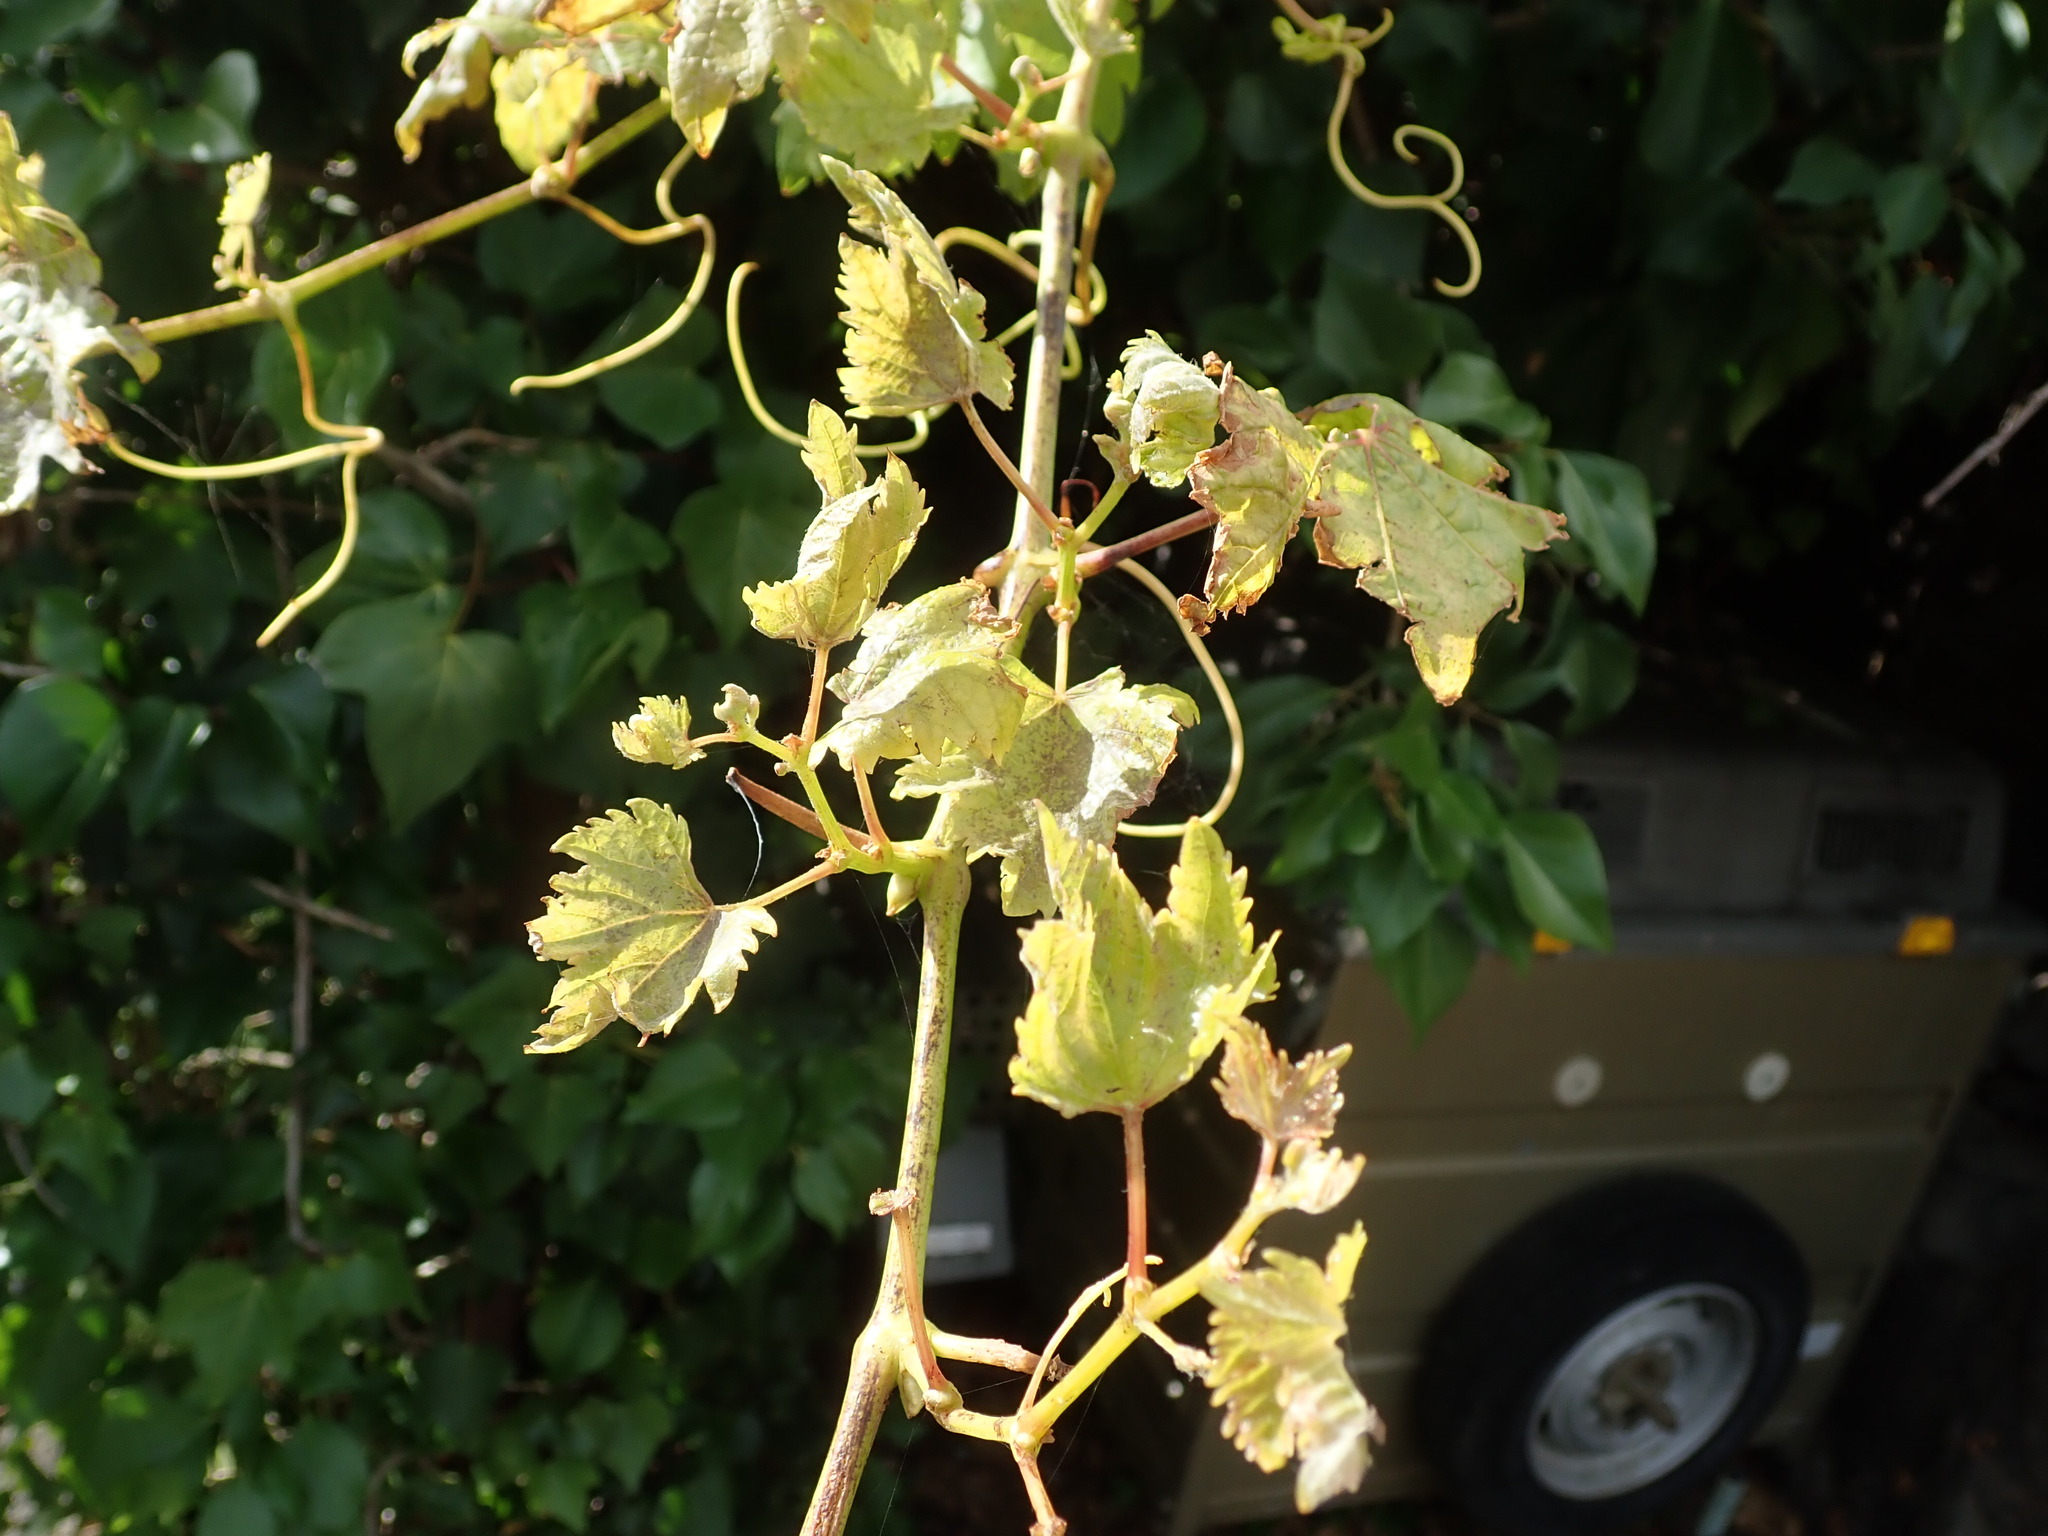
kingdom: Plantae
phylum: Tracheophyta
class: Magnoliopsida
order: Vitales
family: Vitaceae
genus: Vitis
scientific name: Vitis vinifera
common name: Grape-vine
